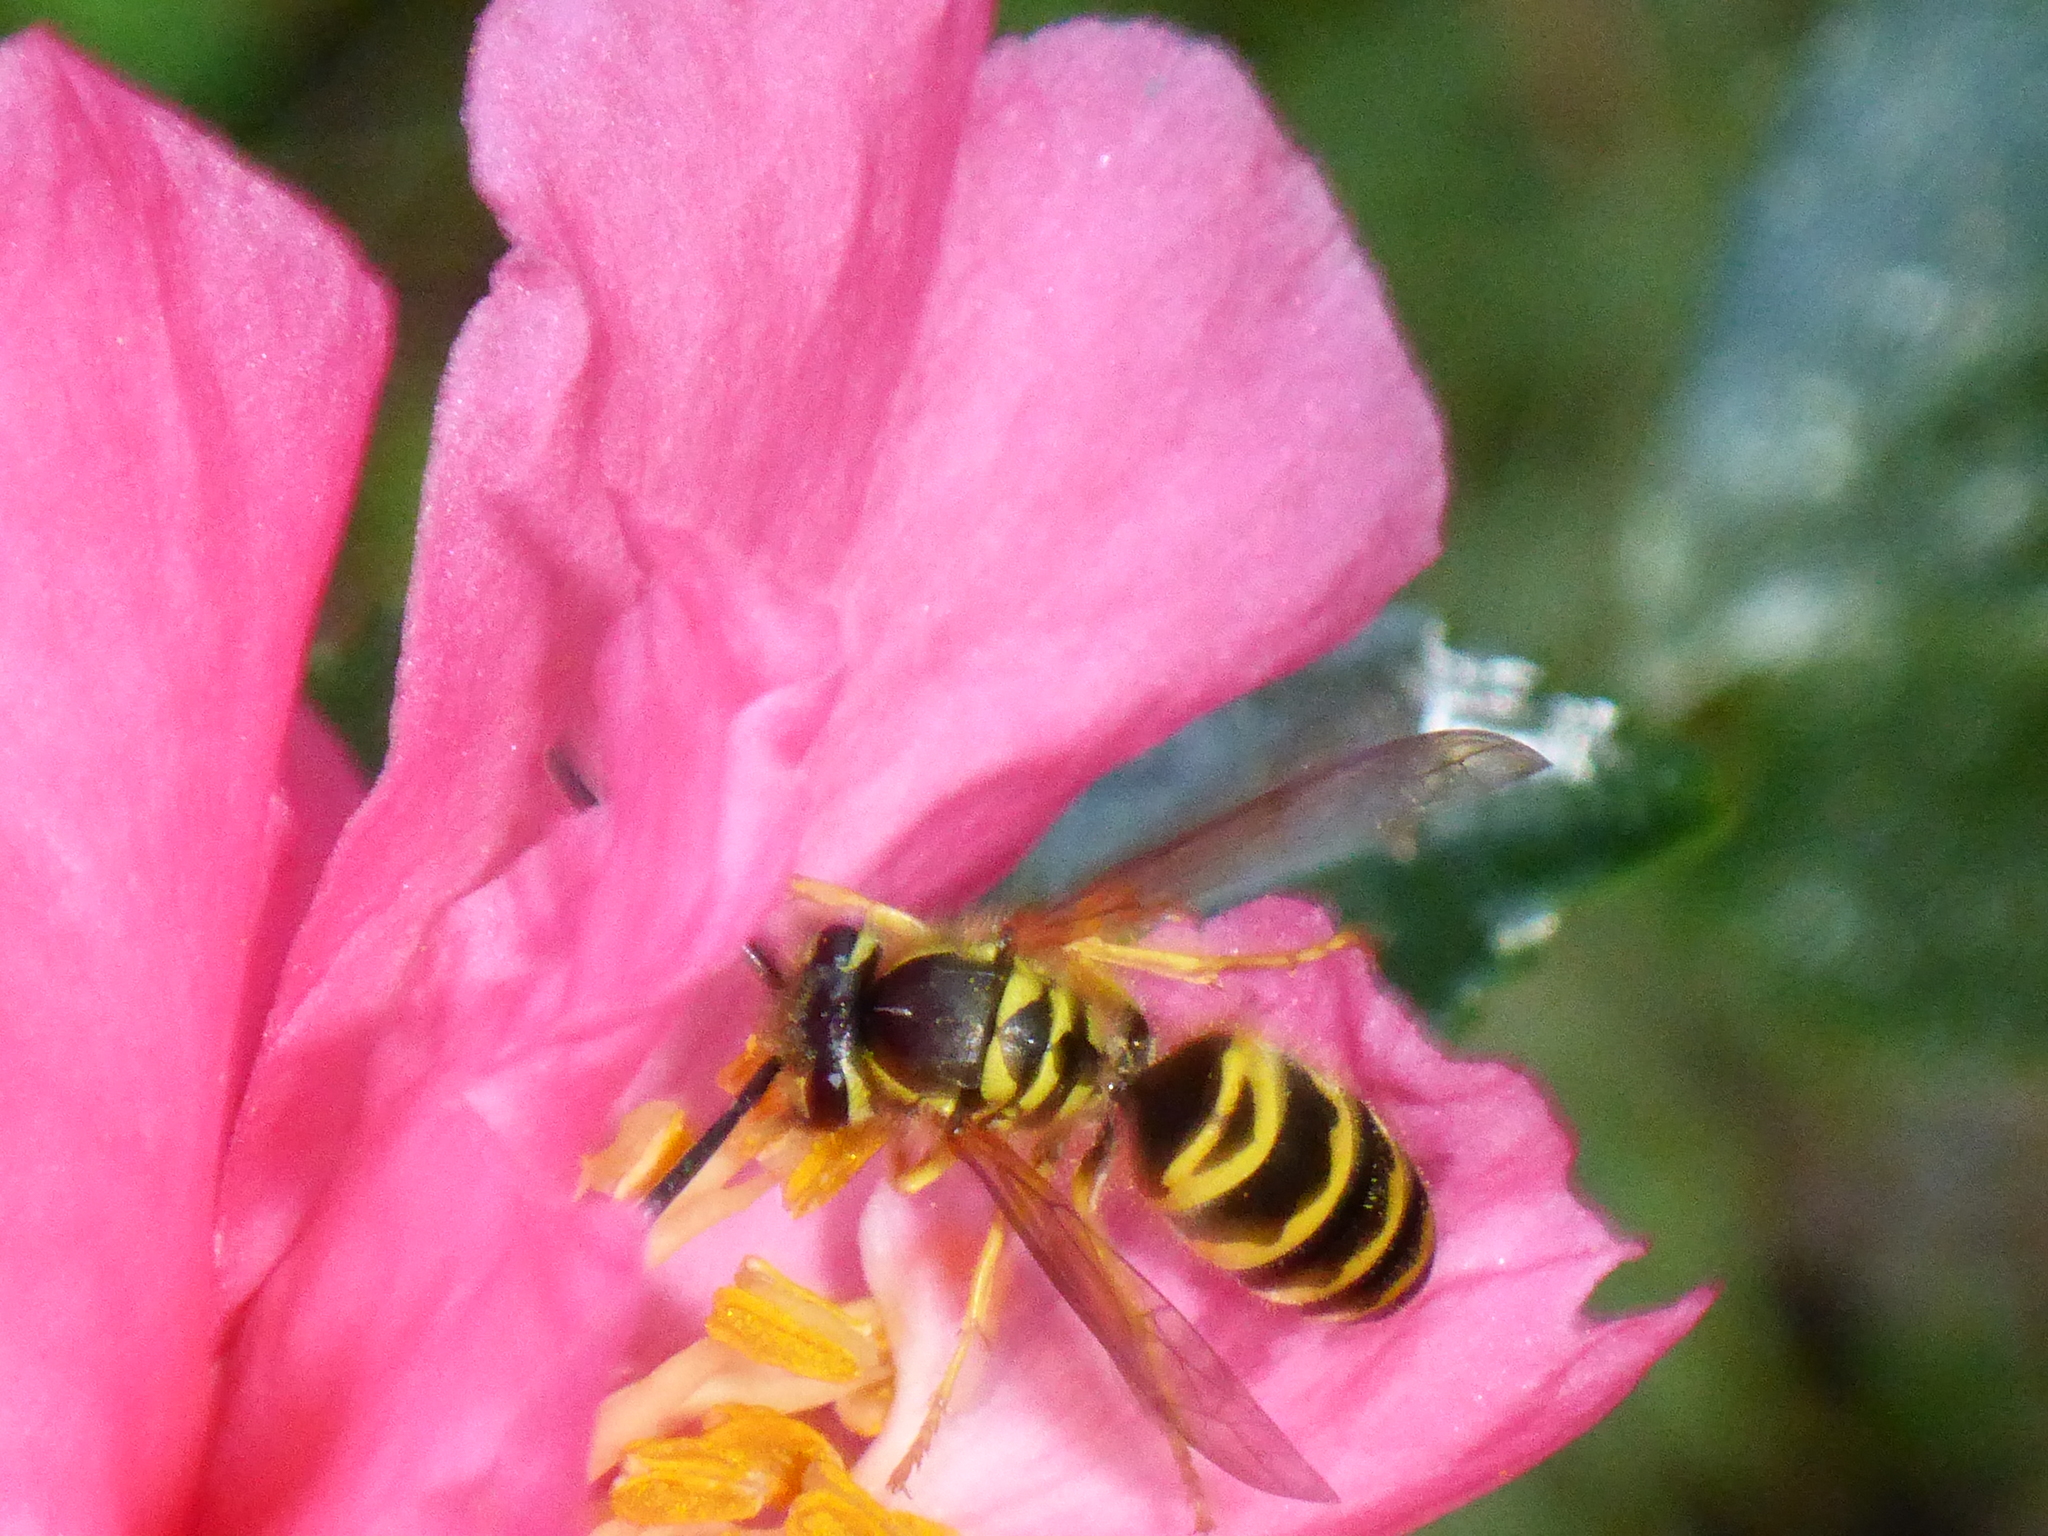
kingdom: Animalia
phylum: Arthropoda
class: Insecta
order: Hymenoptera
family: Vespidae
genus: Vespula
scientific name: Vespula maculifrons
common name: Eastern yellowjacket
